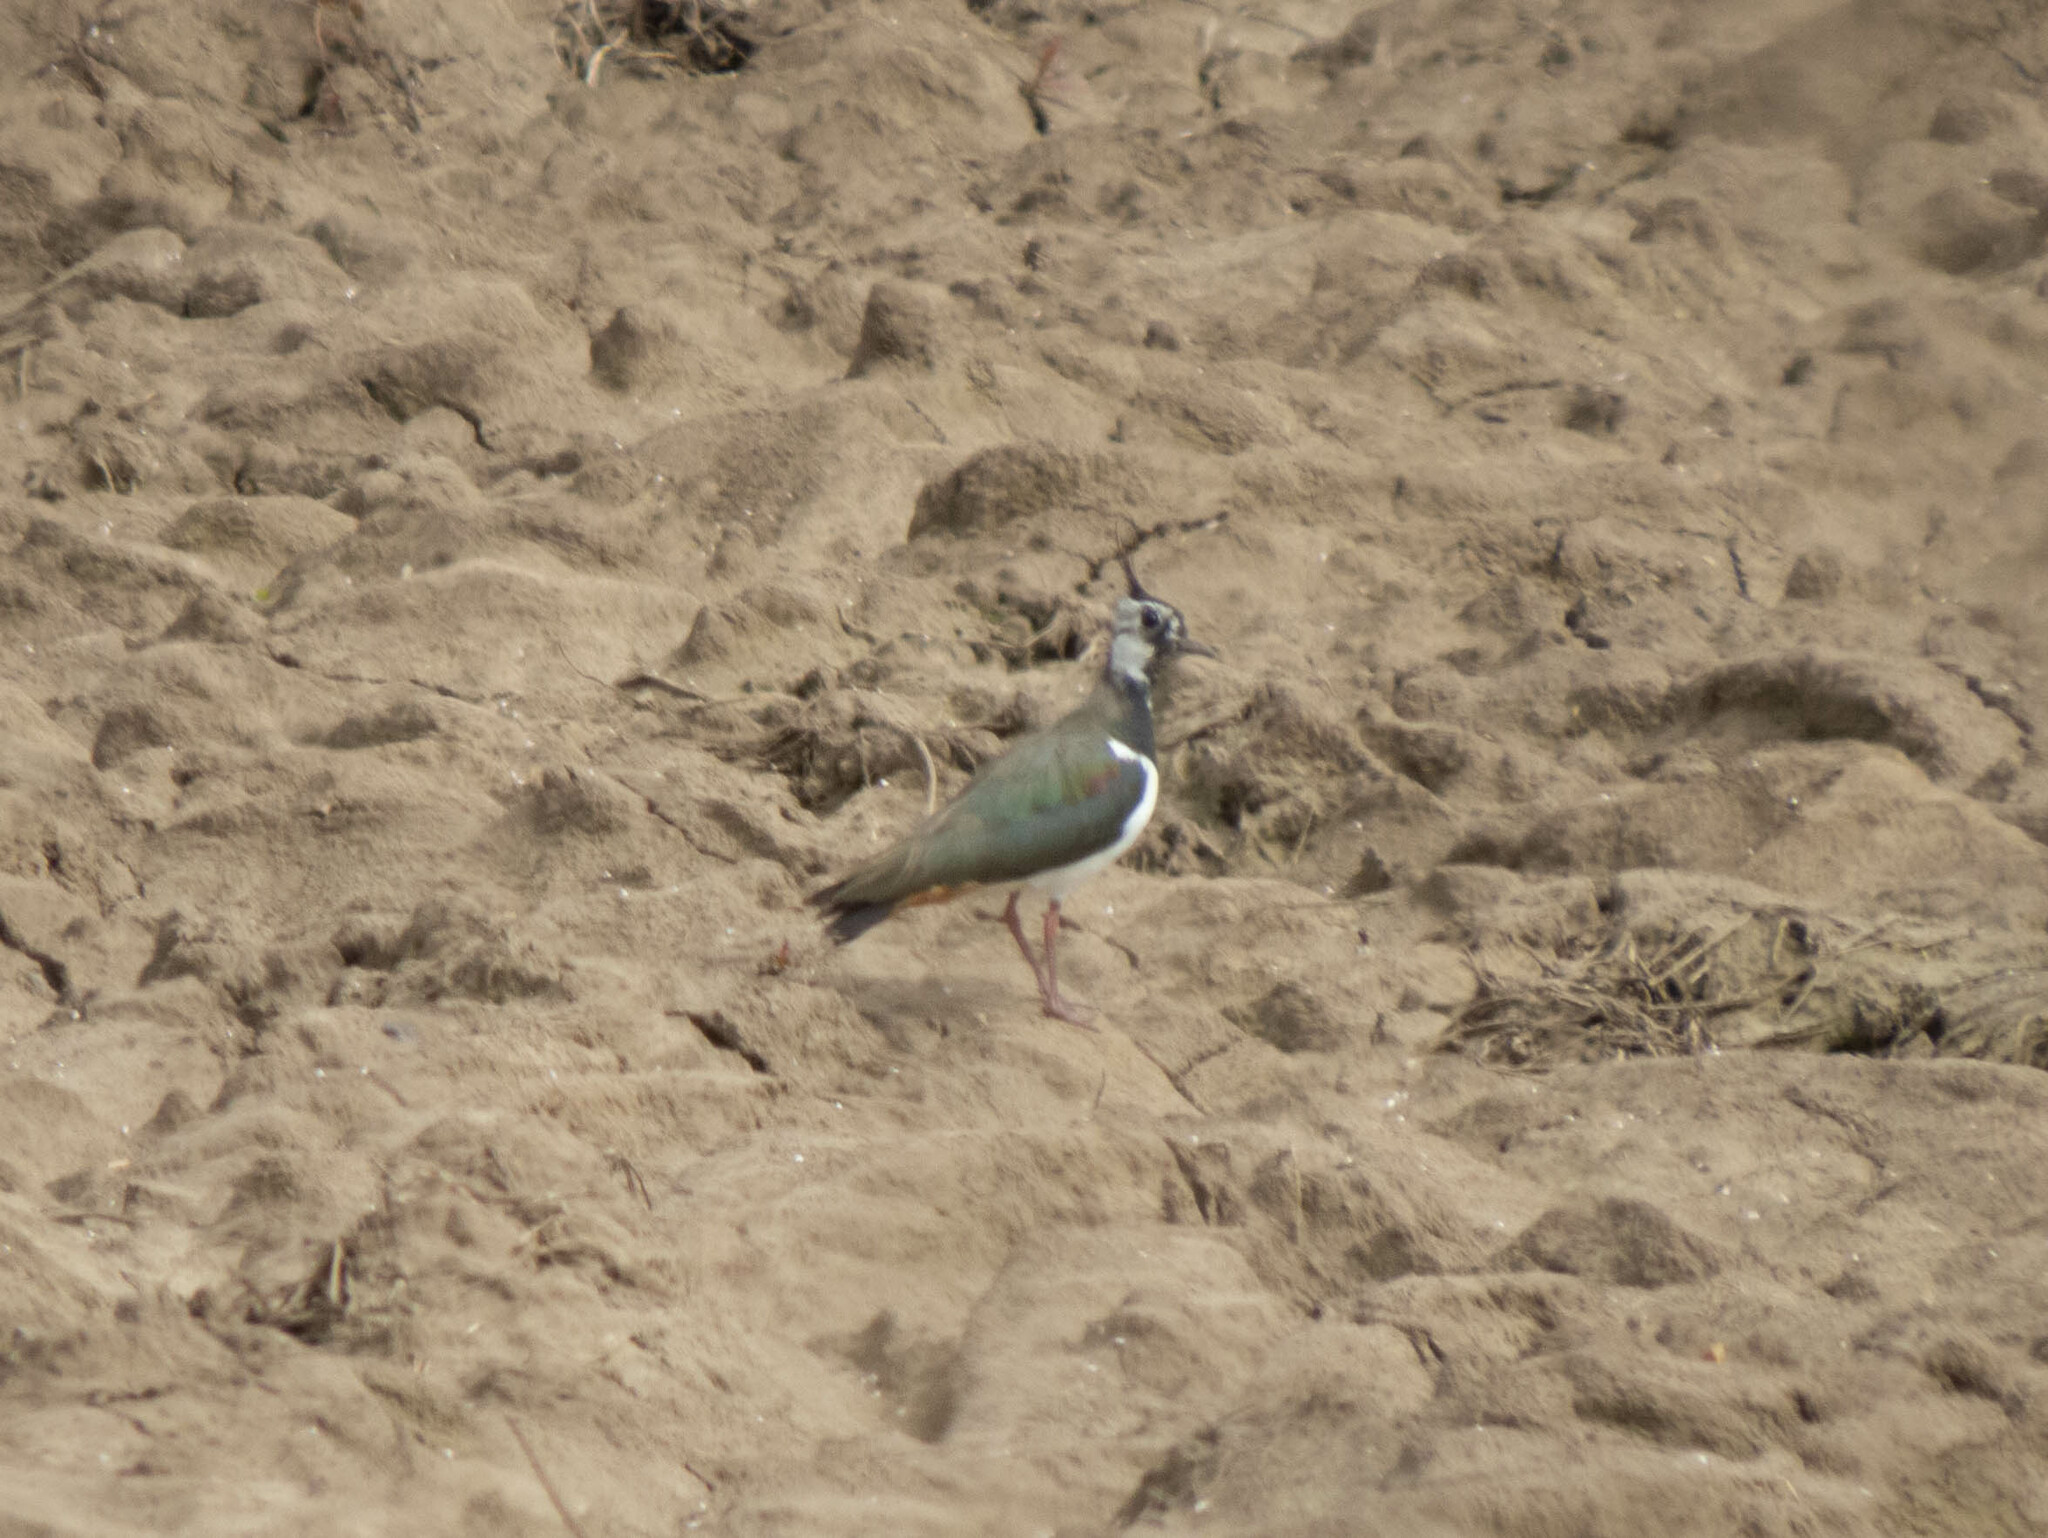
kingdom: Animalia
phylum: Chordata
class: Aves
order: Charadriiformes
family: Charadriidae
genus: Vanellus
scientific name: Vanellus vanellus
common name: Northern lapwing
